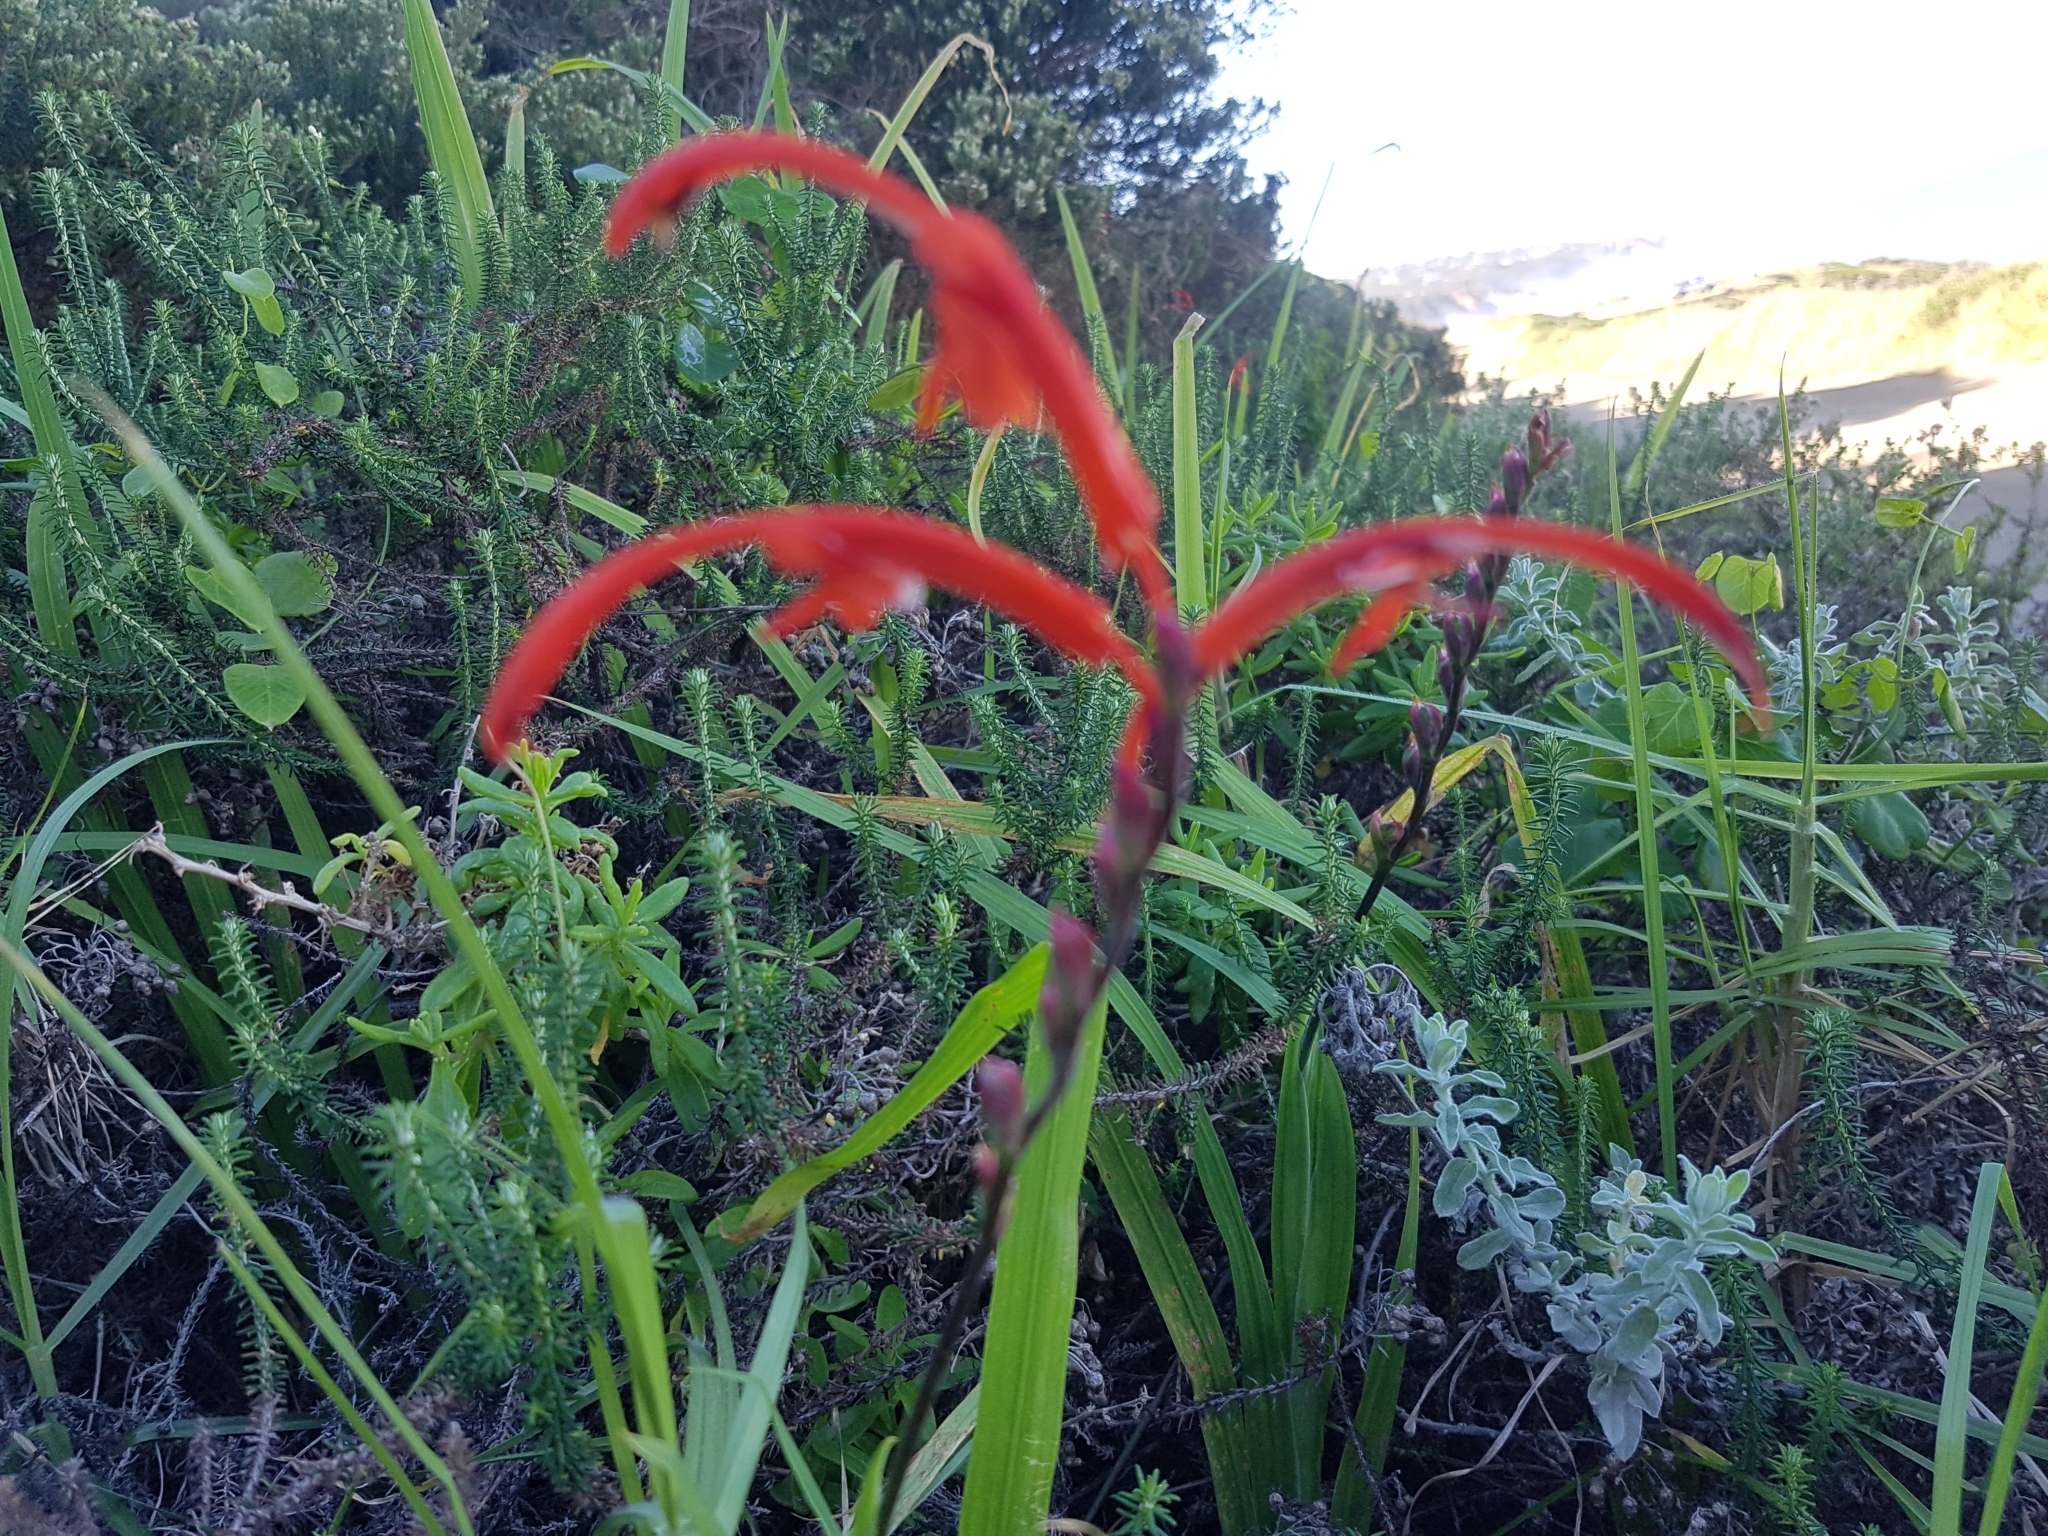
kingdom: Plantae
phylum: Tracheophyta
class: Liliopsida
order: Asparagales
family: Iridaceae
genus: Tritoniopsis
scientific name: Tritoniopsis caffra
